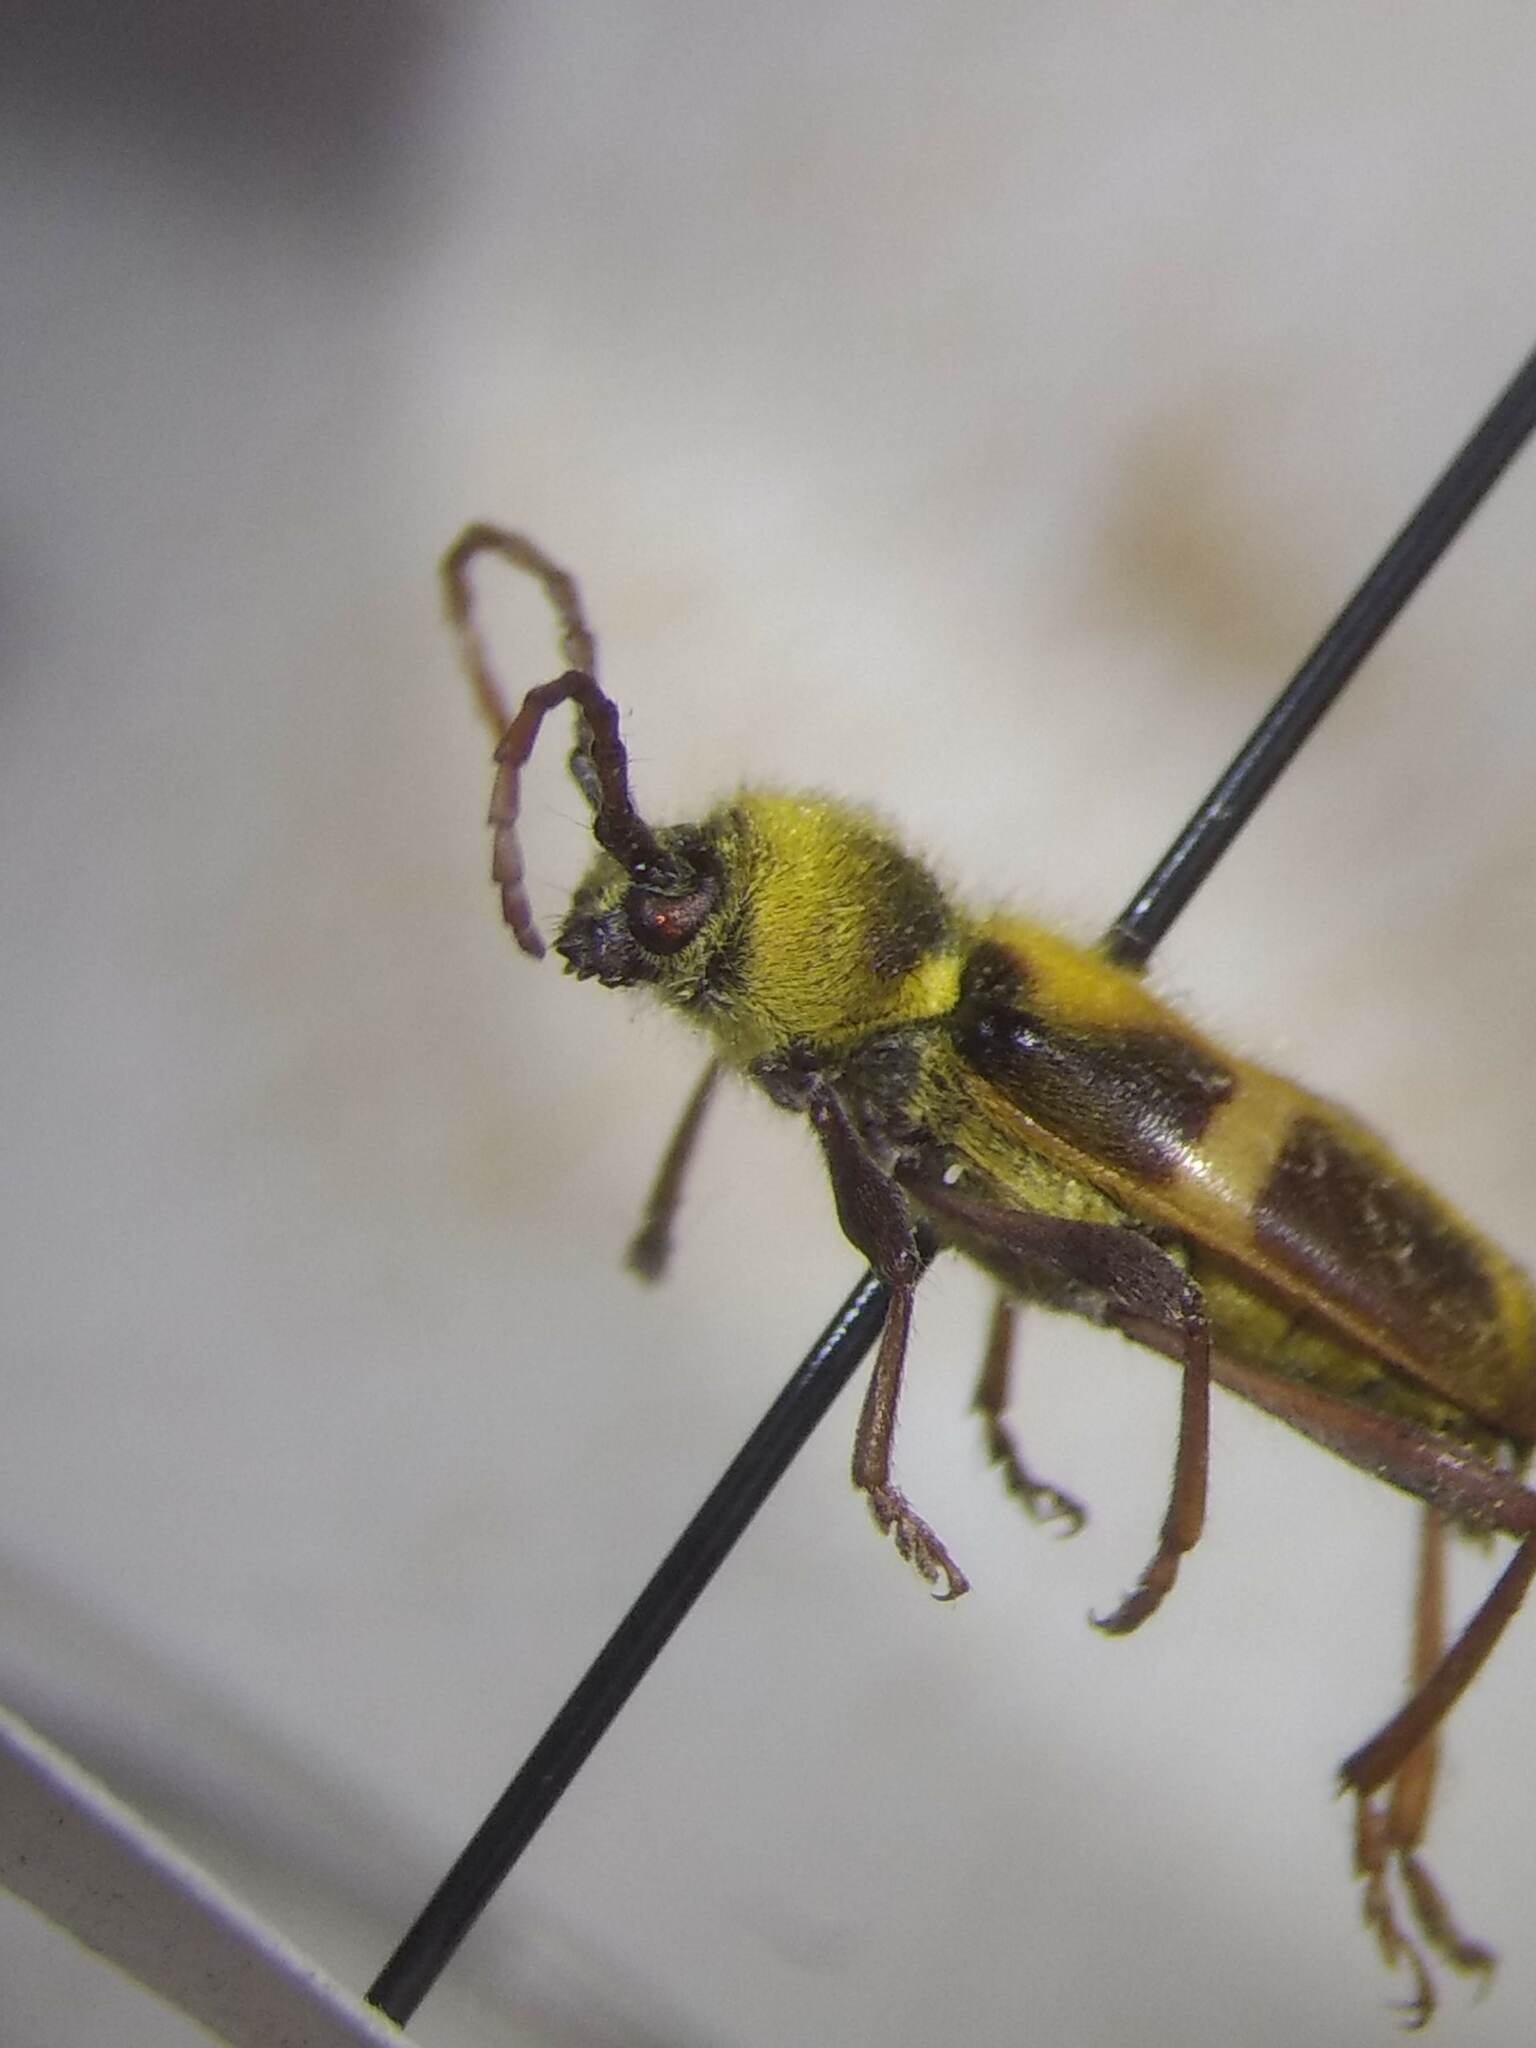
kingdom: Animalia
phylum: Arthropoda
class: Insecta
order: Coleoptera
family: Cerambycidae
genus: Triodoclytus
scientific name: Triodoclytus lanifer
